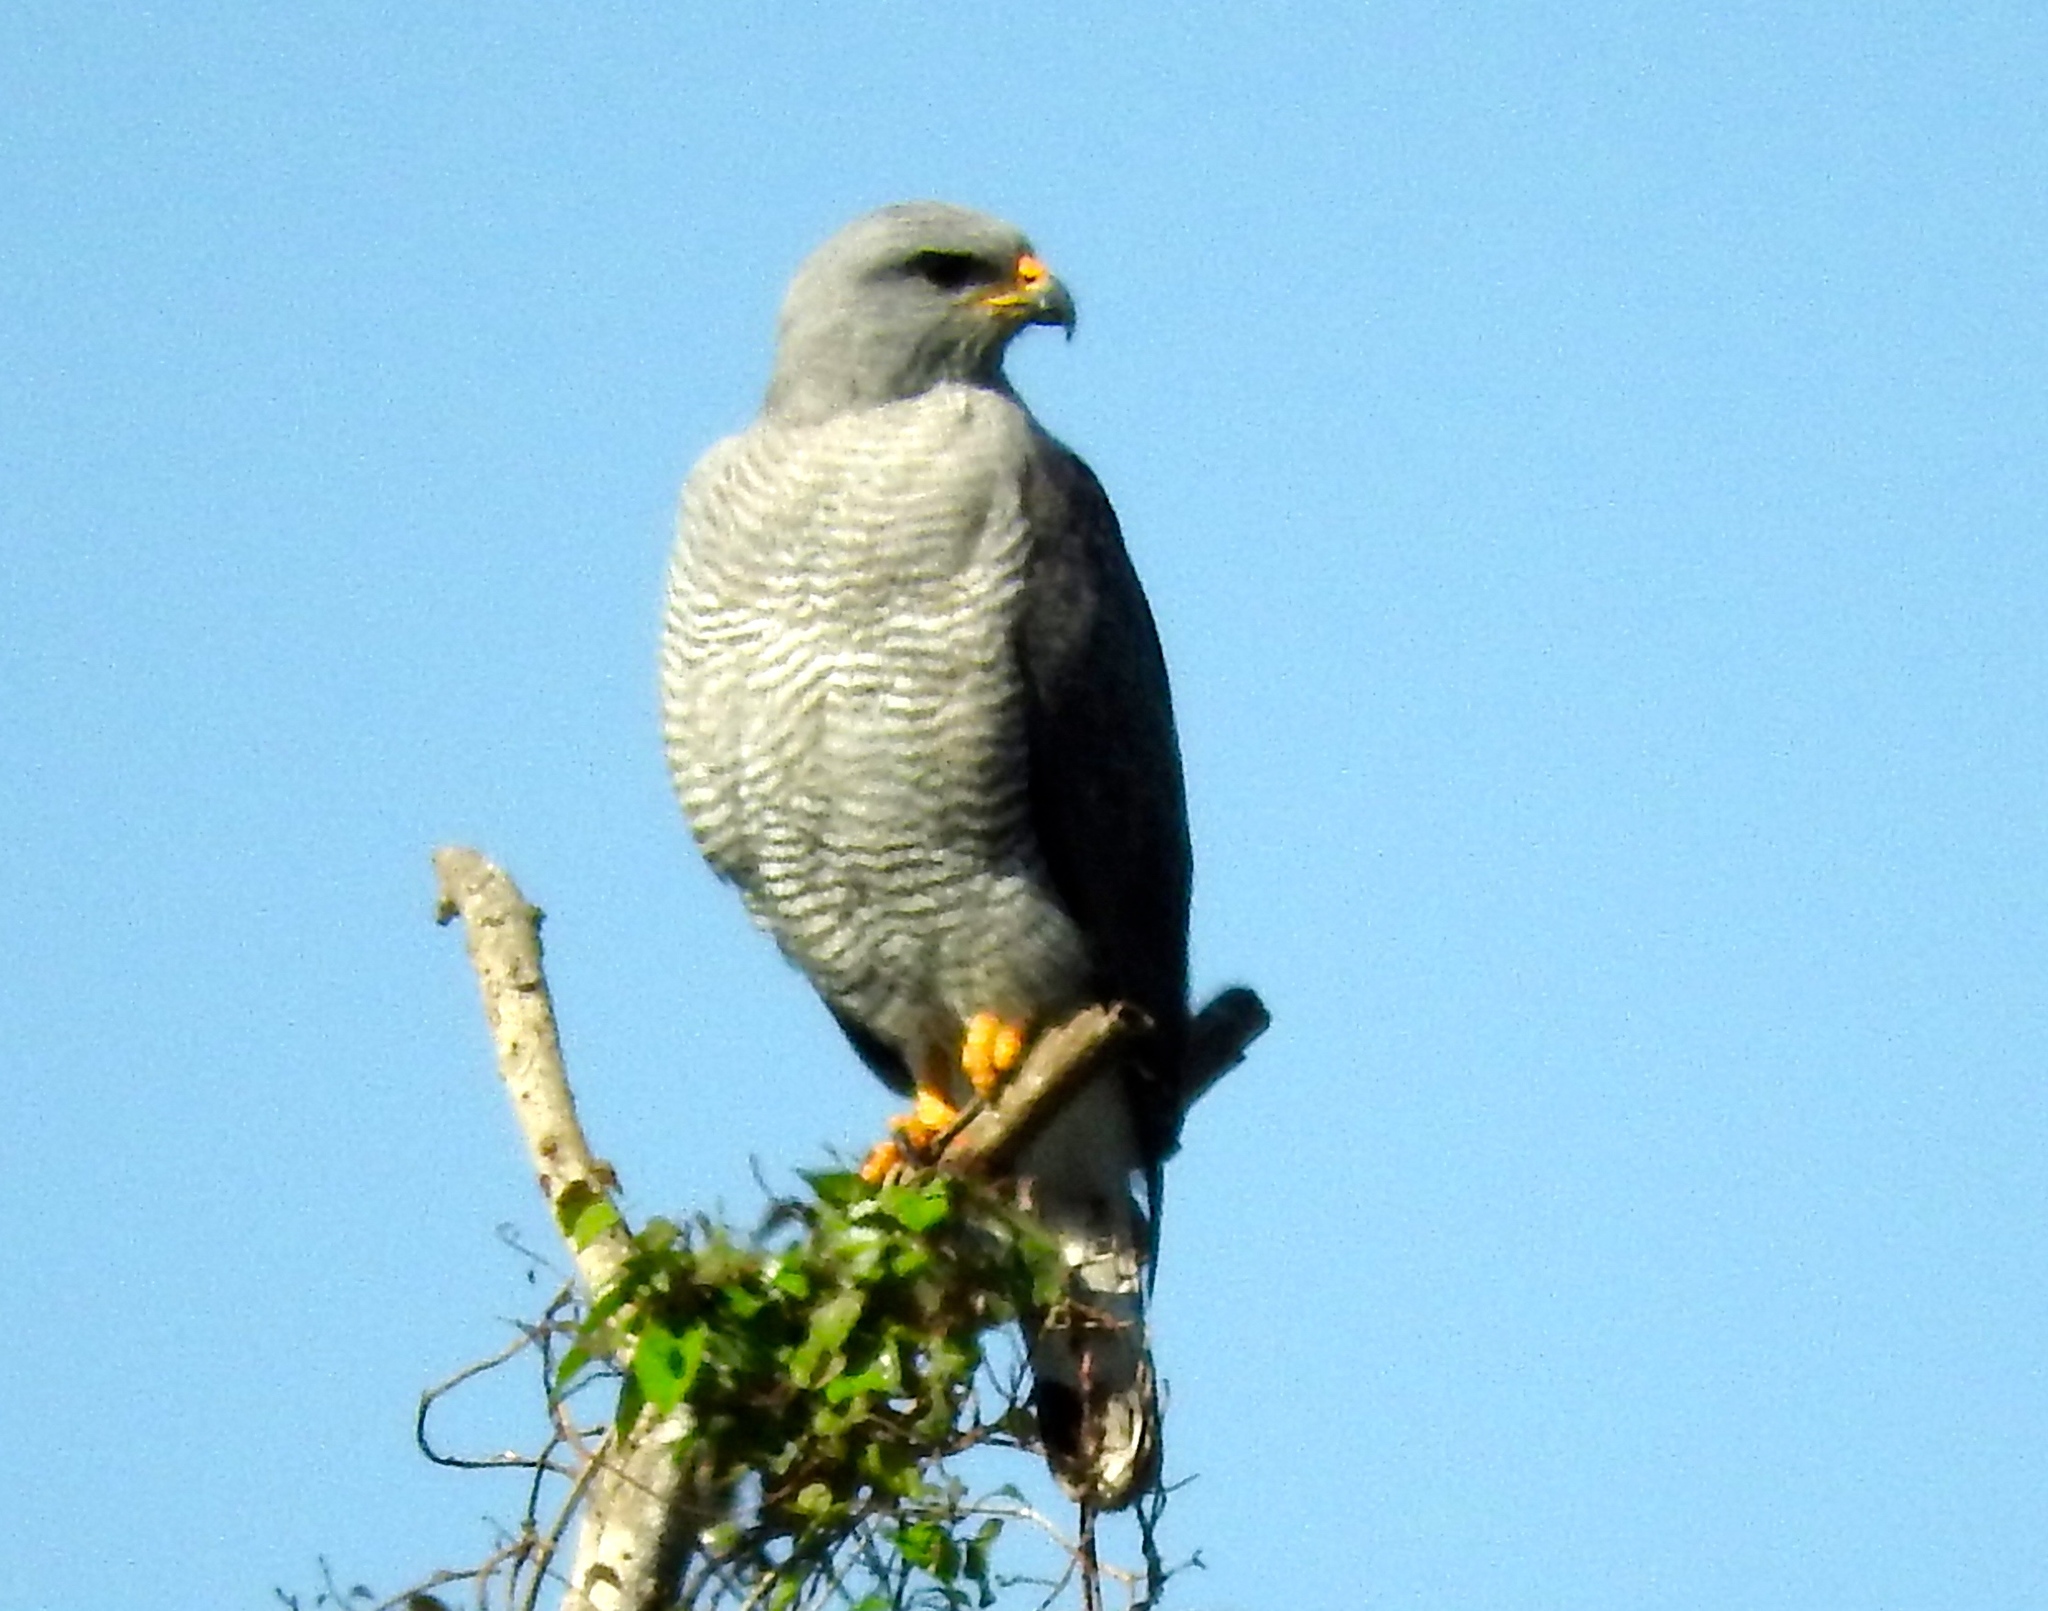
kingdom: Animalia
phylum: Chordata
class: Aves
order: Accipitriformes
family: Accipitridae
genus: Buteo
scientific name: Buteo nitidus
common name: Grey-lined hawk
